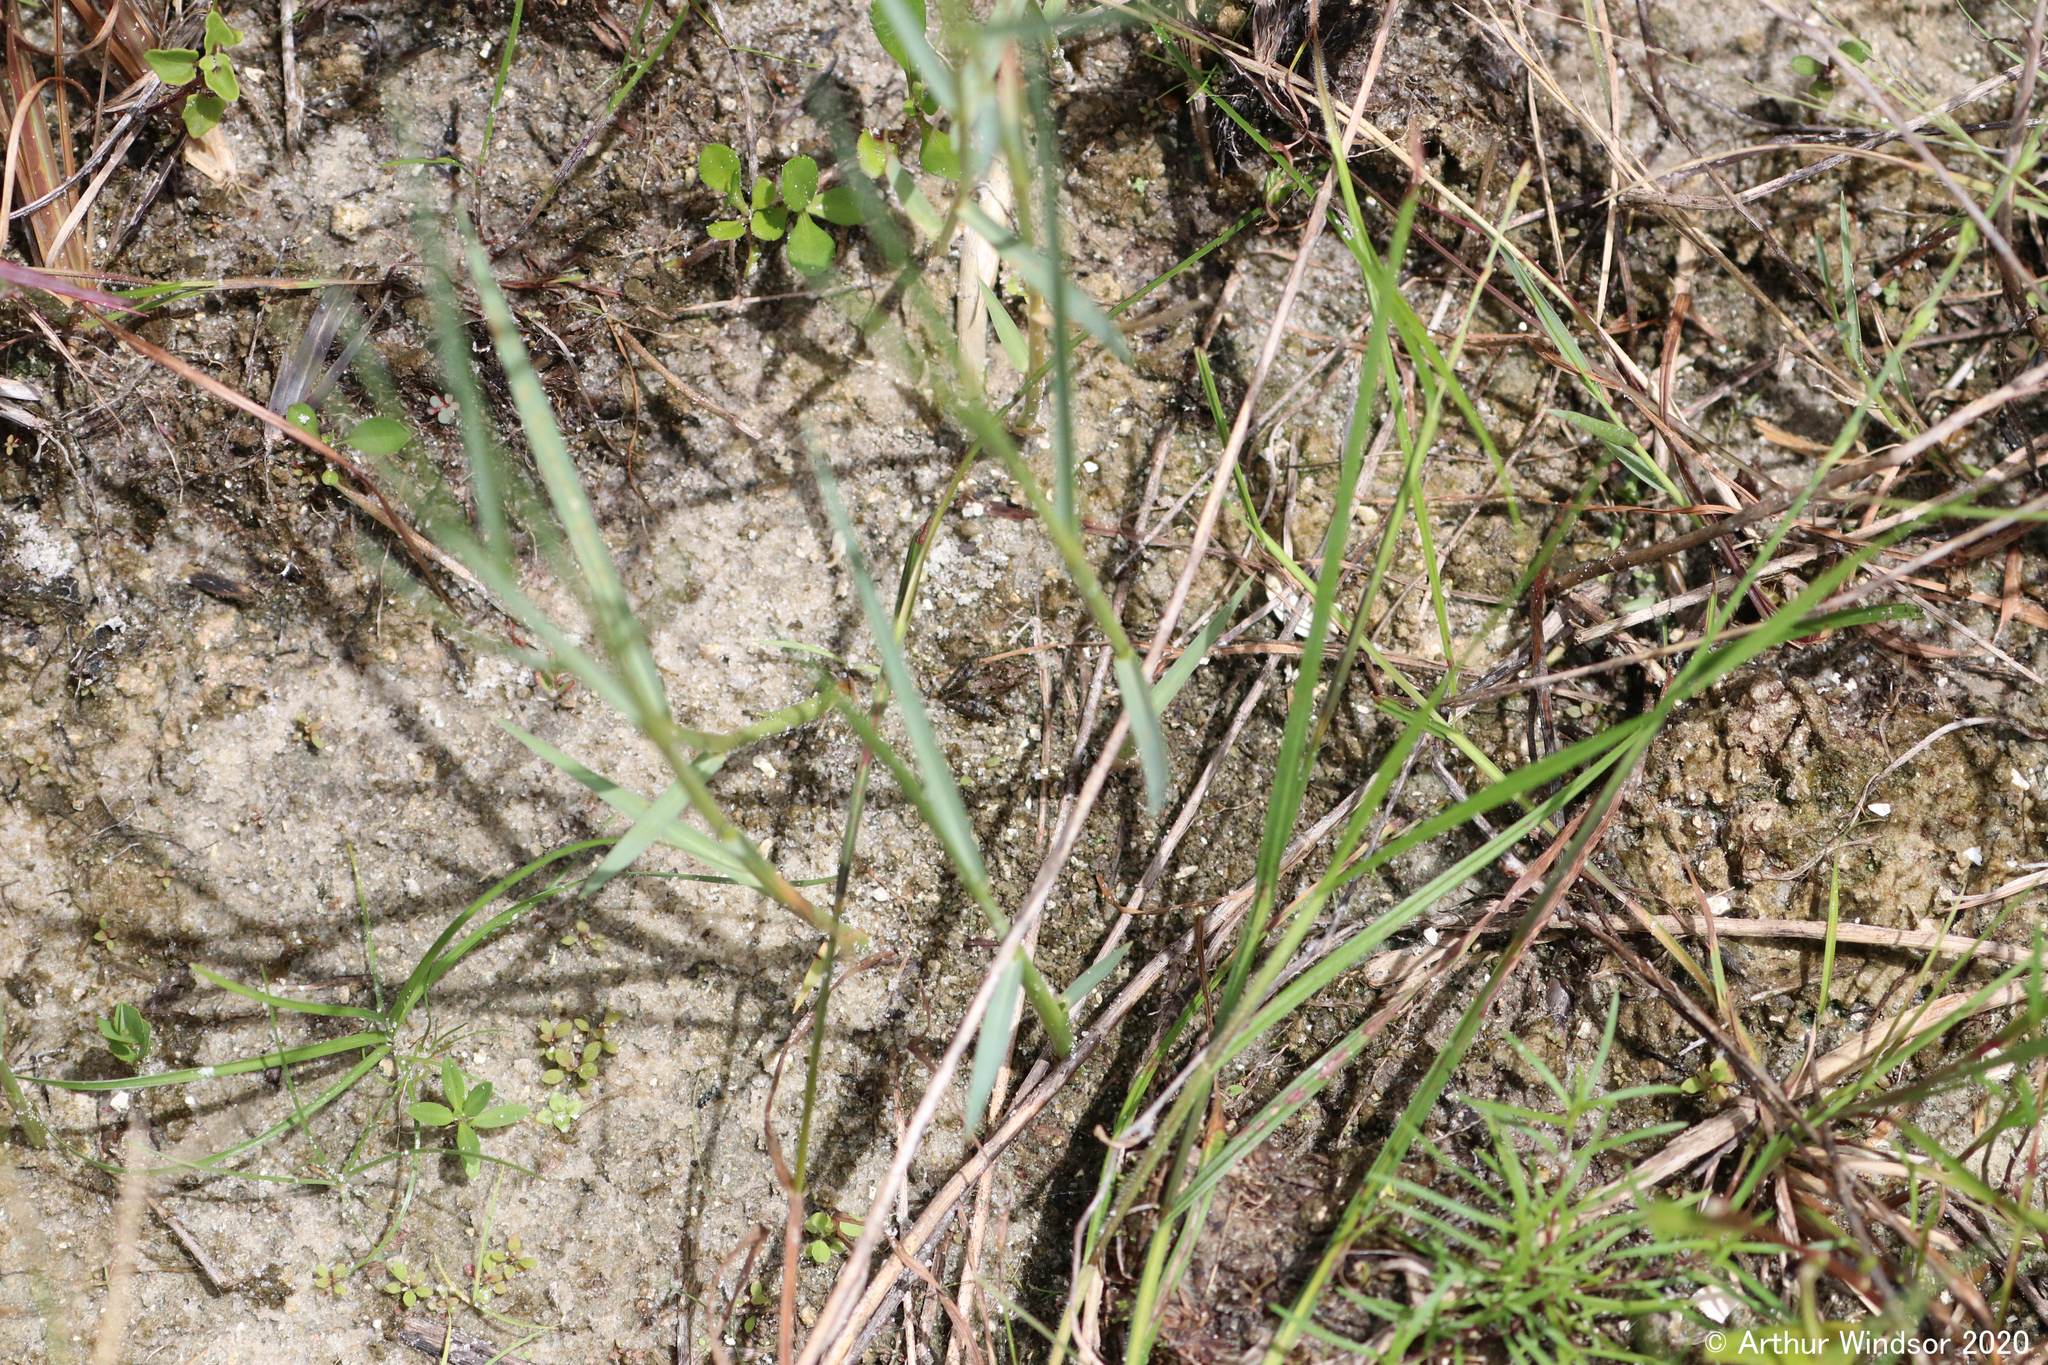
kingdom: Animalia
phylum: Chordata
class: Amphibia
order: Anura
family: Hylidae
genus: Acris
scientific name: Acris gryllus
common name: Southern cricket frog
